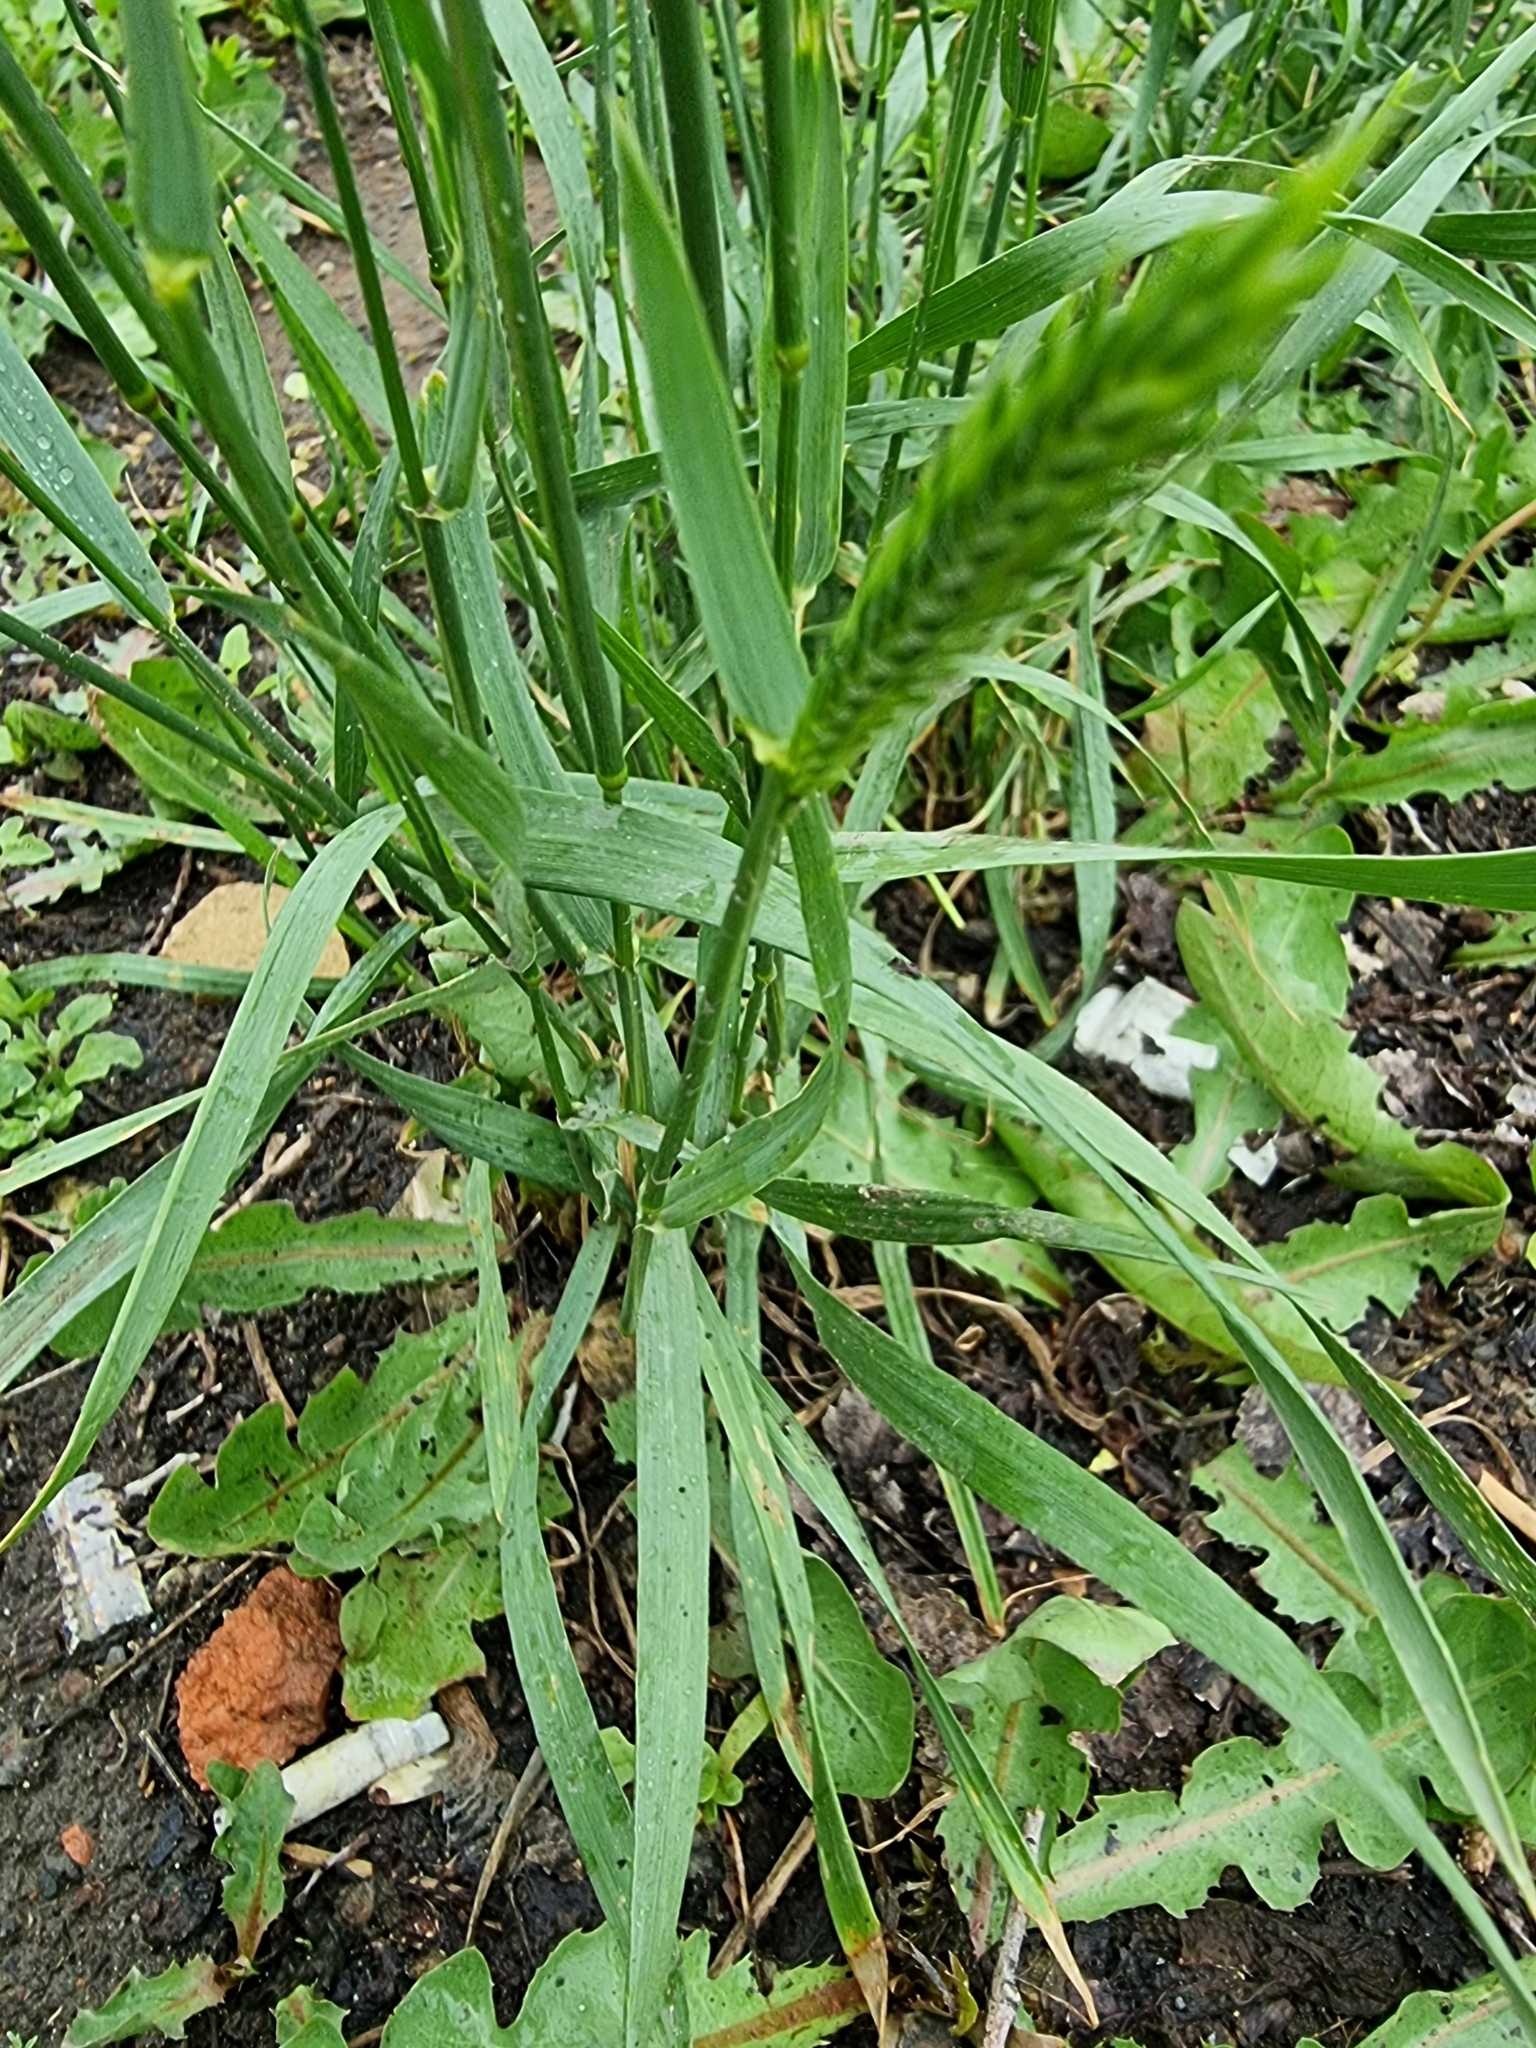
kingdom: Plantae
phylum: Tracheophyta
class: Liliopsida
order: Poales
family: Poaceae
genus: Agropyron
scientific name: Agropyron cristatum
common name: Crested wheatgrass
